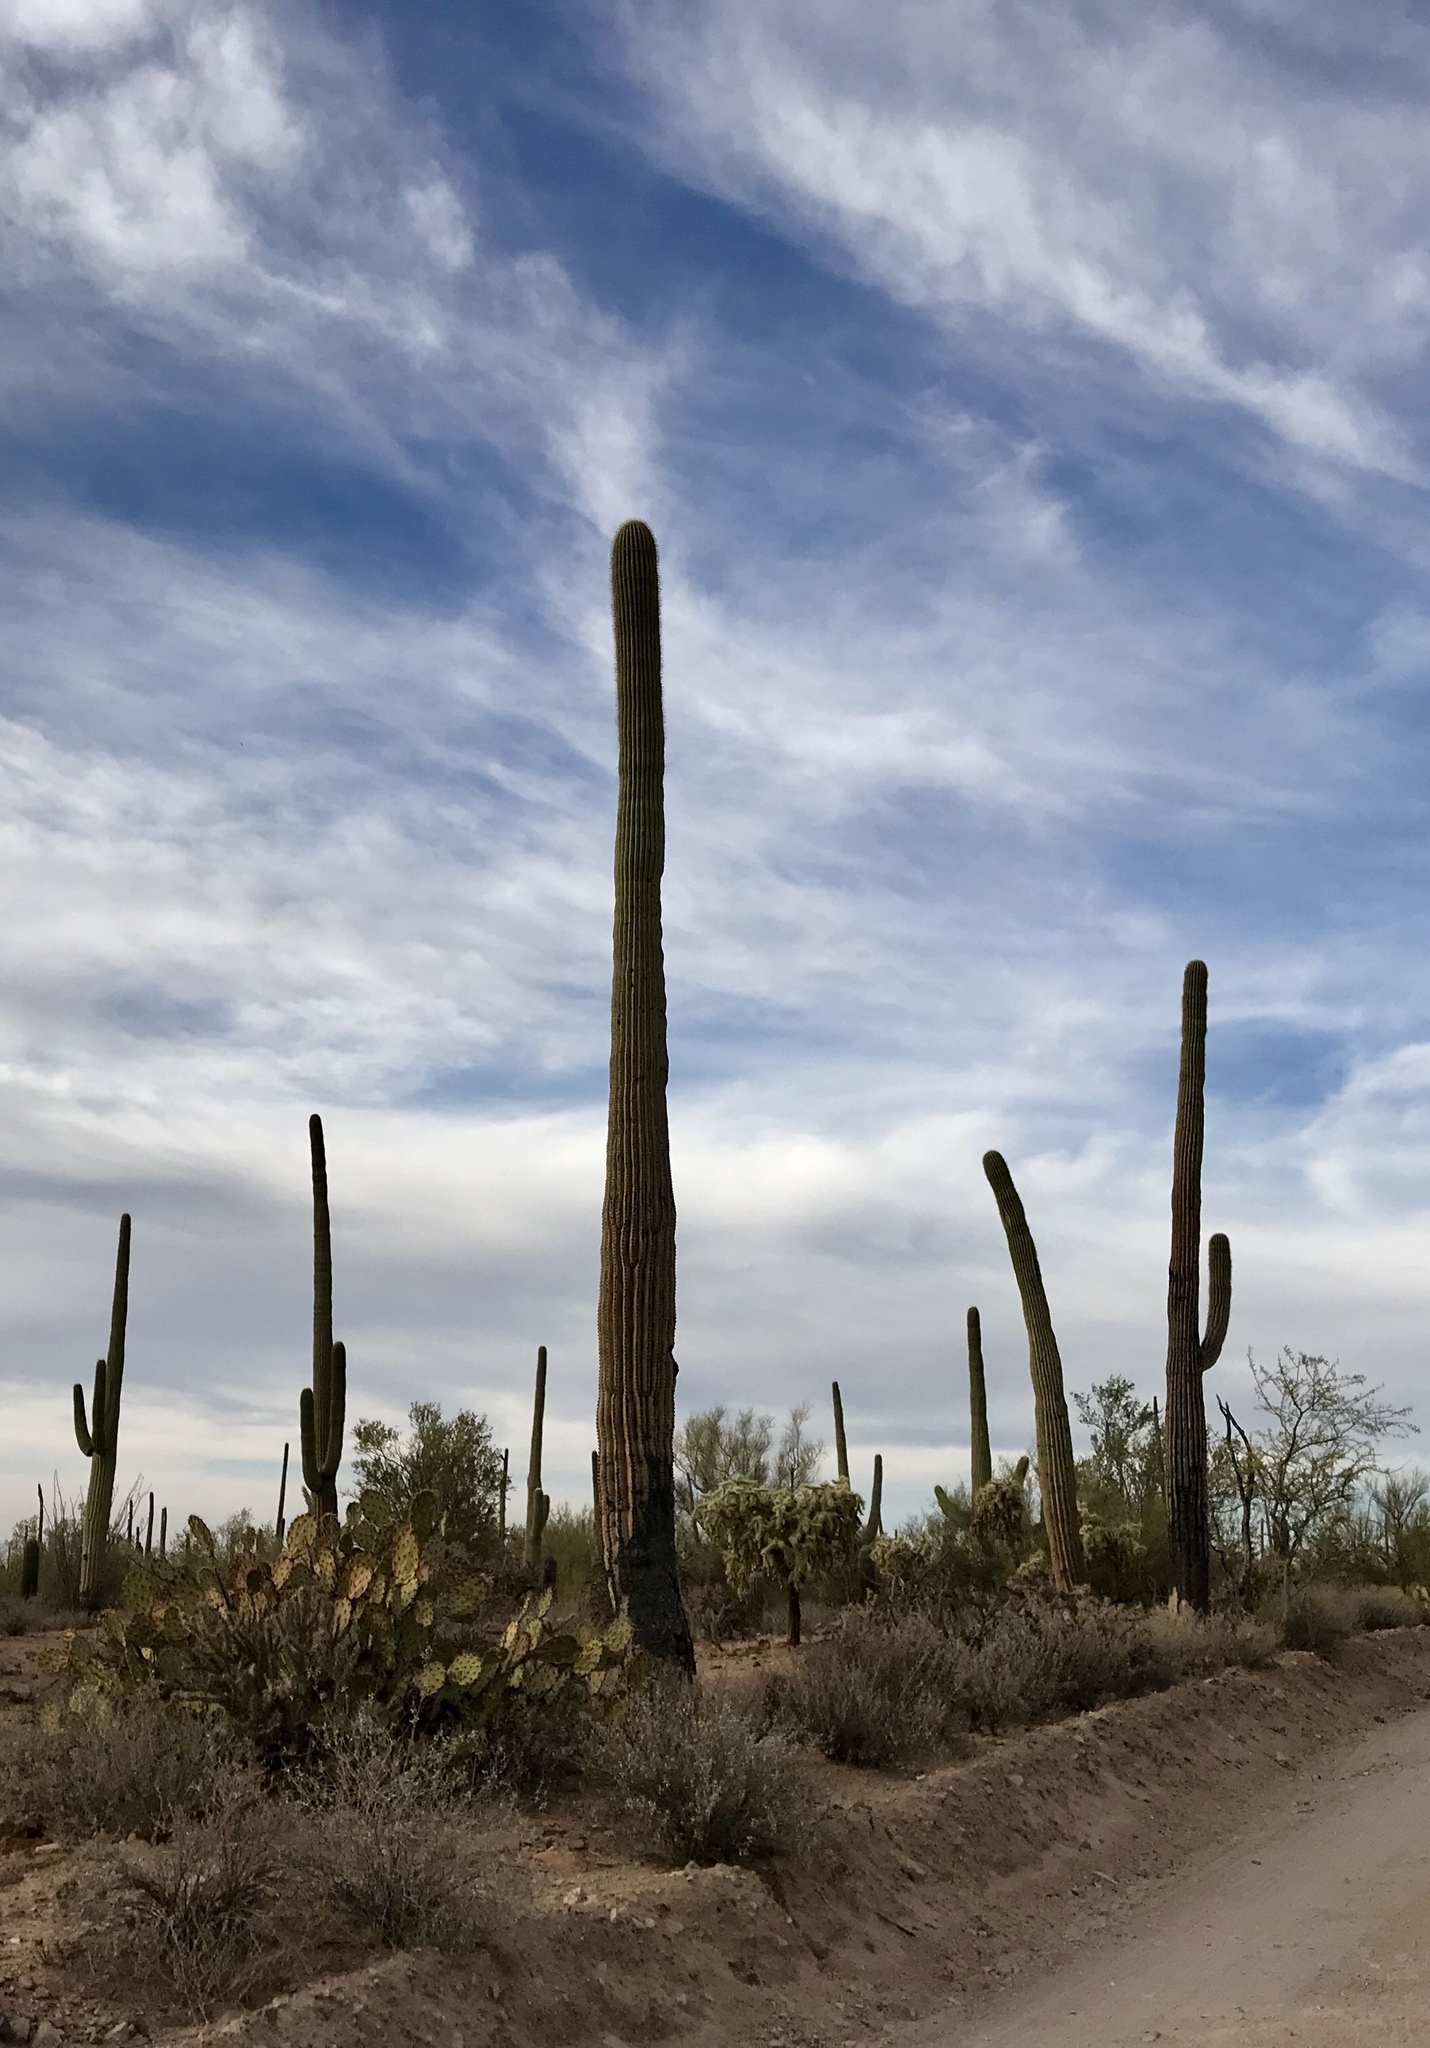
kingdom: Plantae
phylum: Tracheophyta
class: Magnoliopsida
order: Caryophyllales
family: Cactaceae
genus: Carnegiea
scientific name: Carnegiea gigantea
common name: Saguaro
